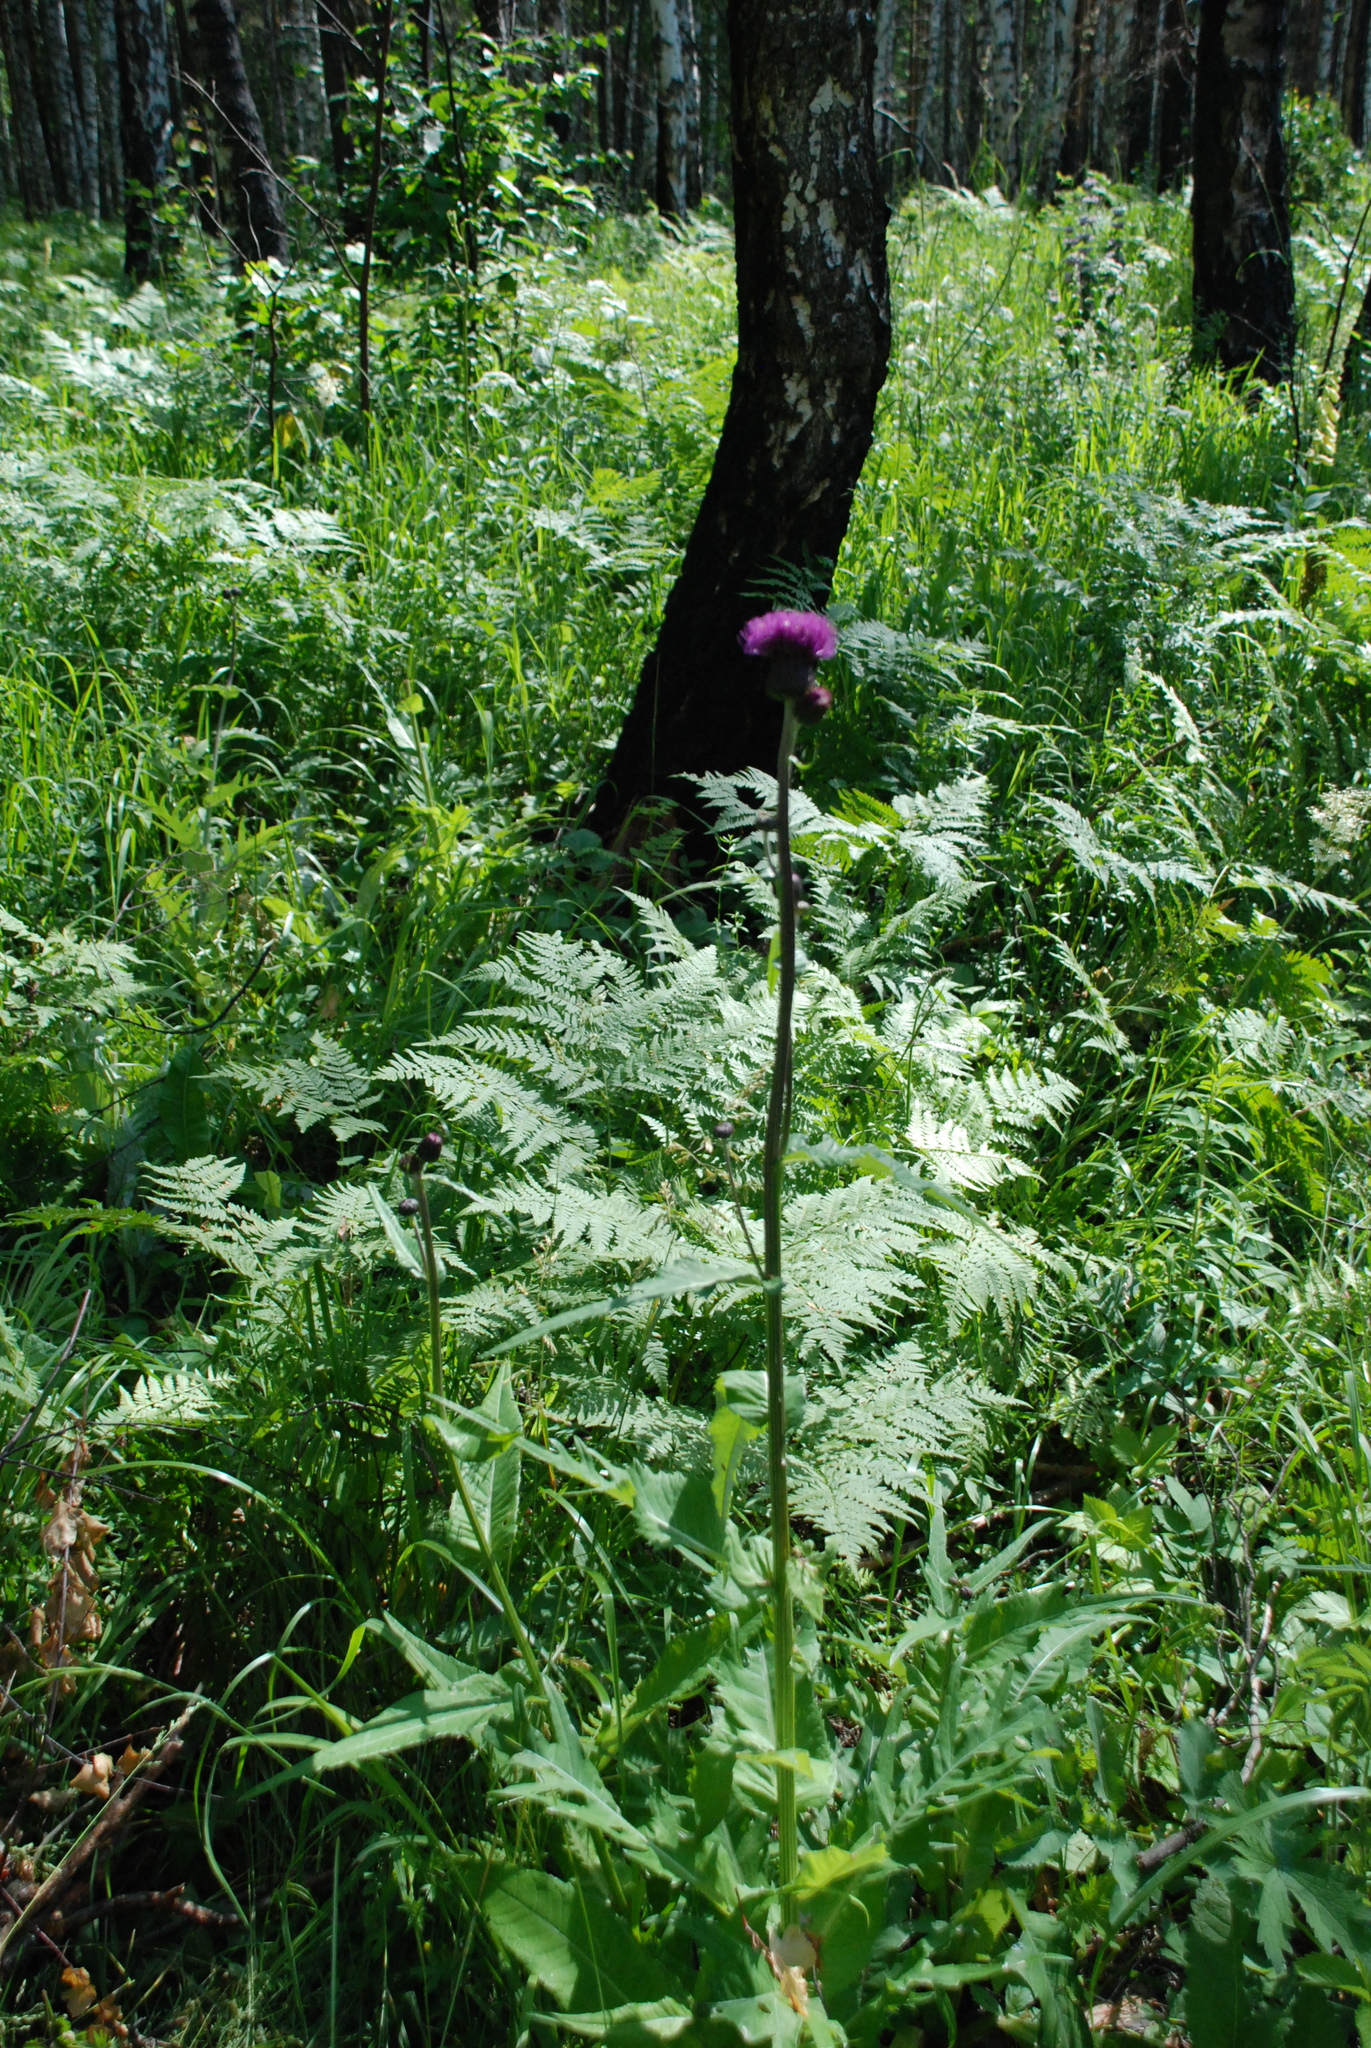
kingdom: Plantae
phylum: Tracheophyta
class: Magnoliopsida
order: Asterales
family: Asteraceae
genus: Cirsium
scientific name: Cirsium heterophyllum
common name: Melancholy thistle
